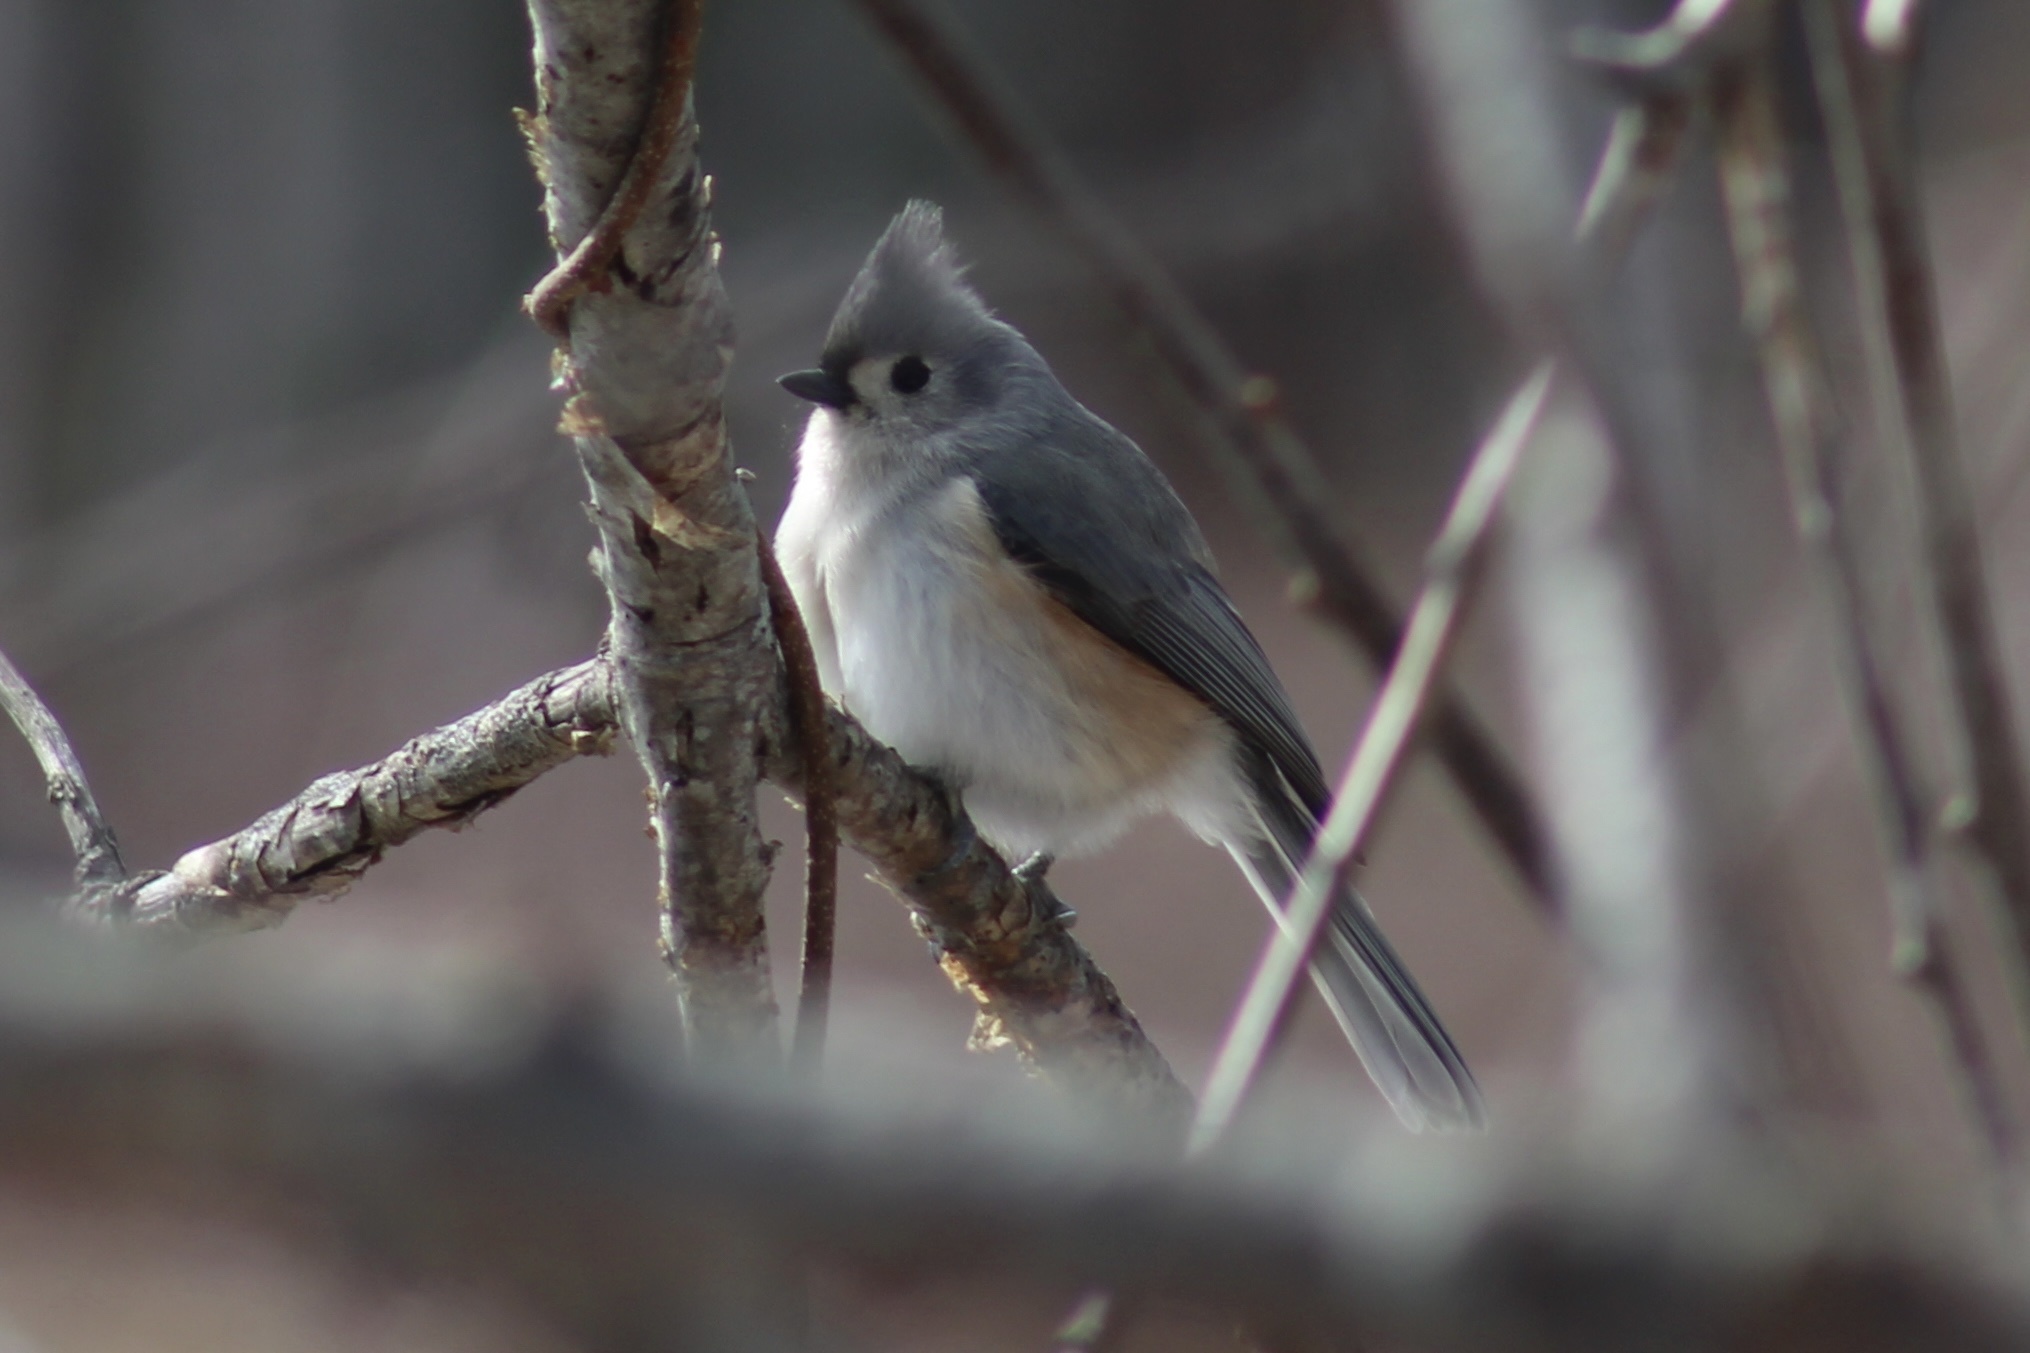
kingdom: Animalia
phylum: Chordata
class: Aves
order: Passeriformes
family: Paridae
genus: Baeolophus
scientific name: Baeolophus bicolor
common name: Tufted titmouse
